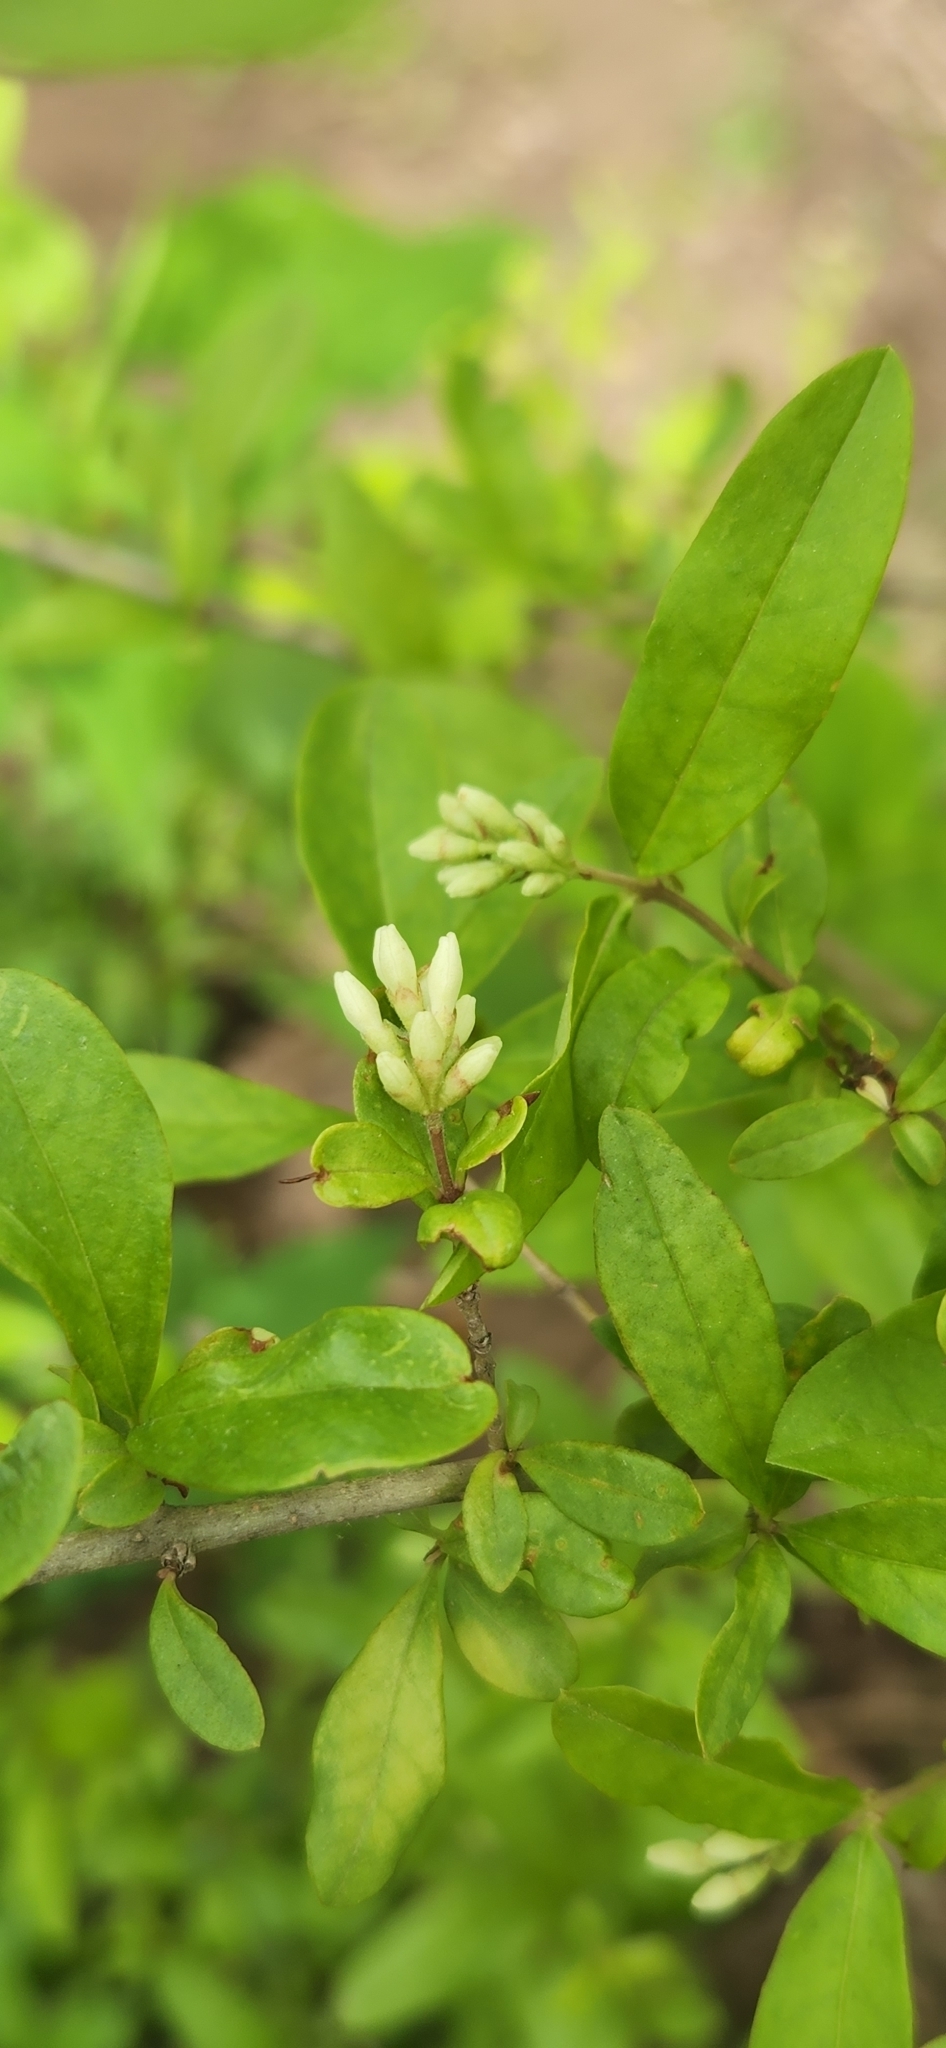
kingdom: Plantae
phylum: Tracheophyta
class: Magnoliopsida
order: Lamiales
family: Oleaceae
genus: Ligustrum
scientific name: Ligustrum obtusifolium
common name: Border privet
